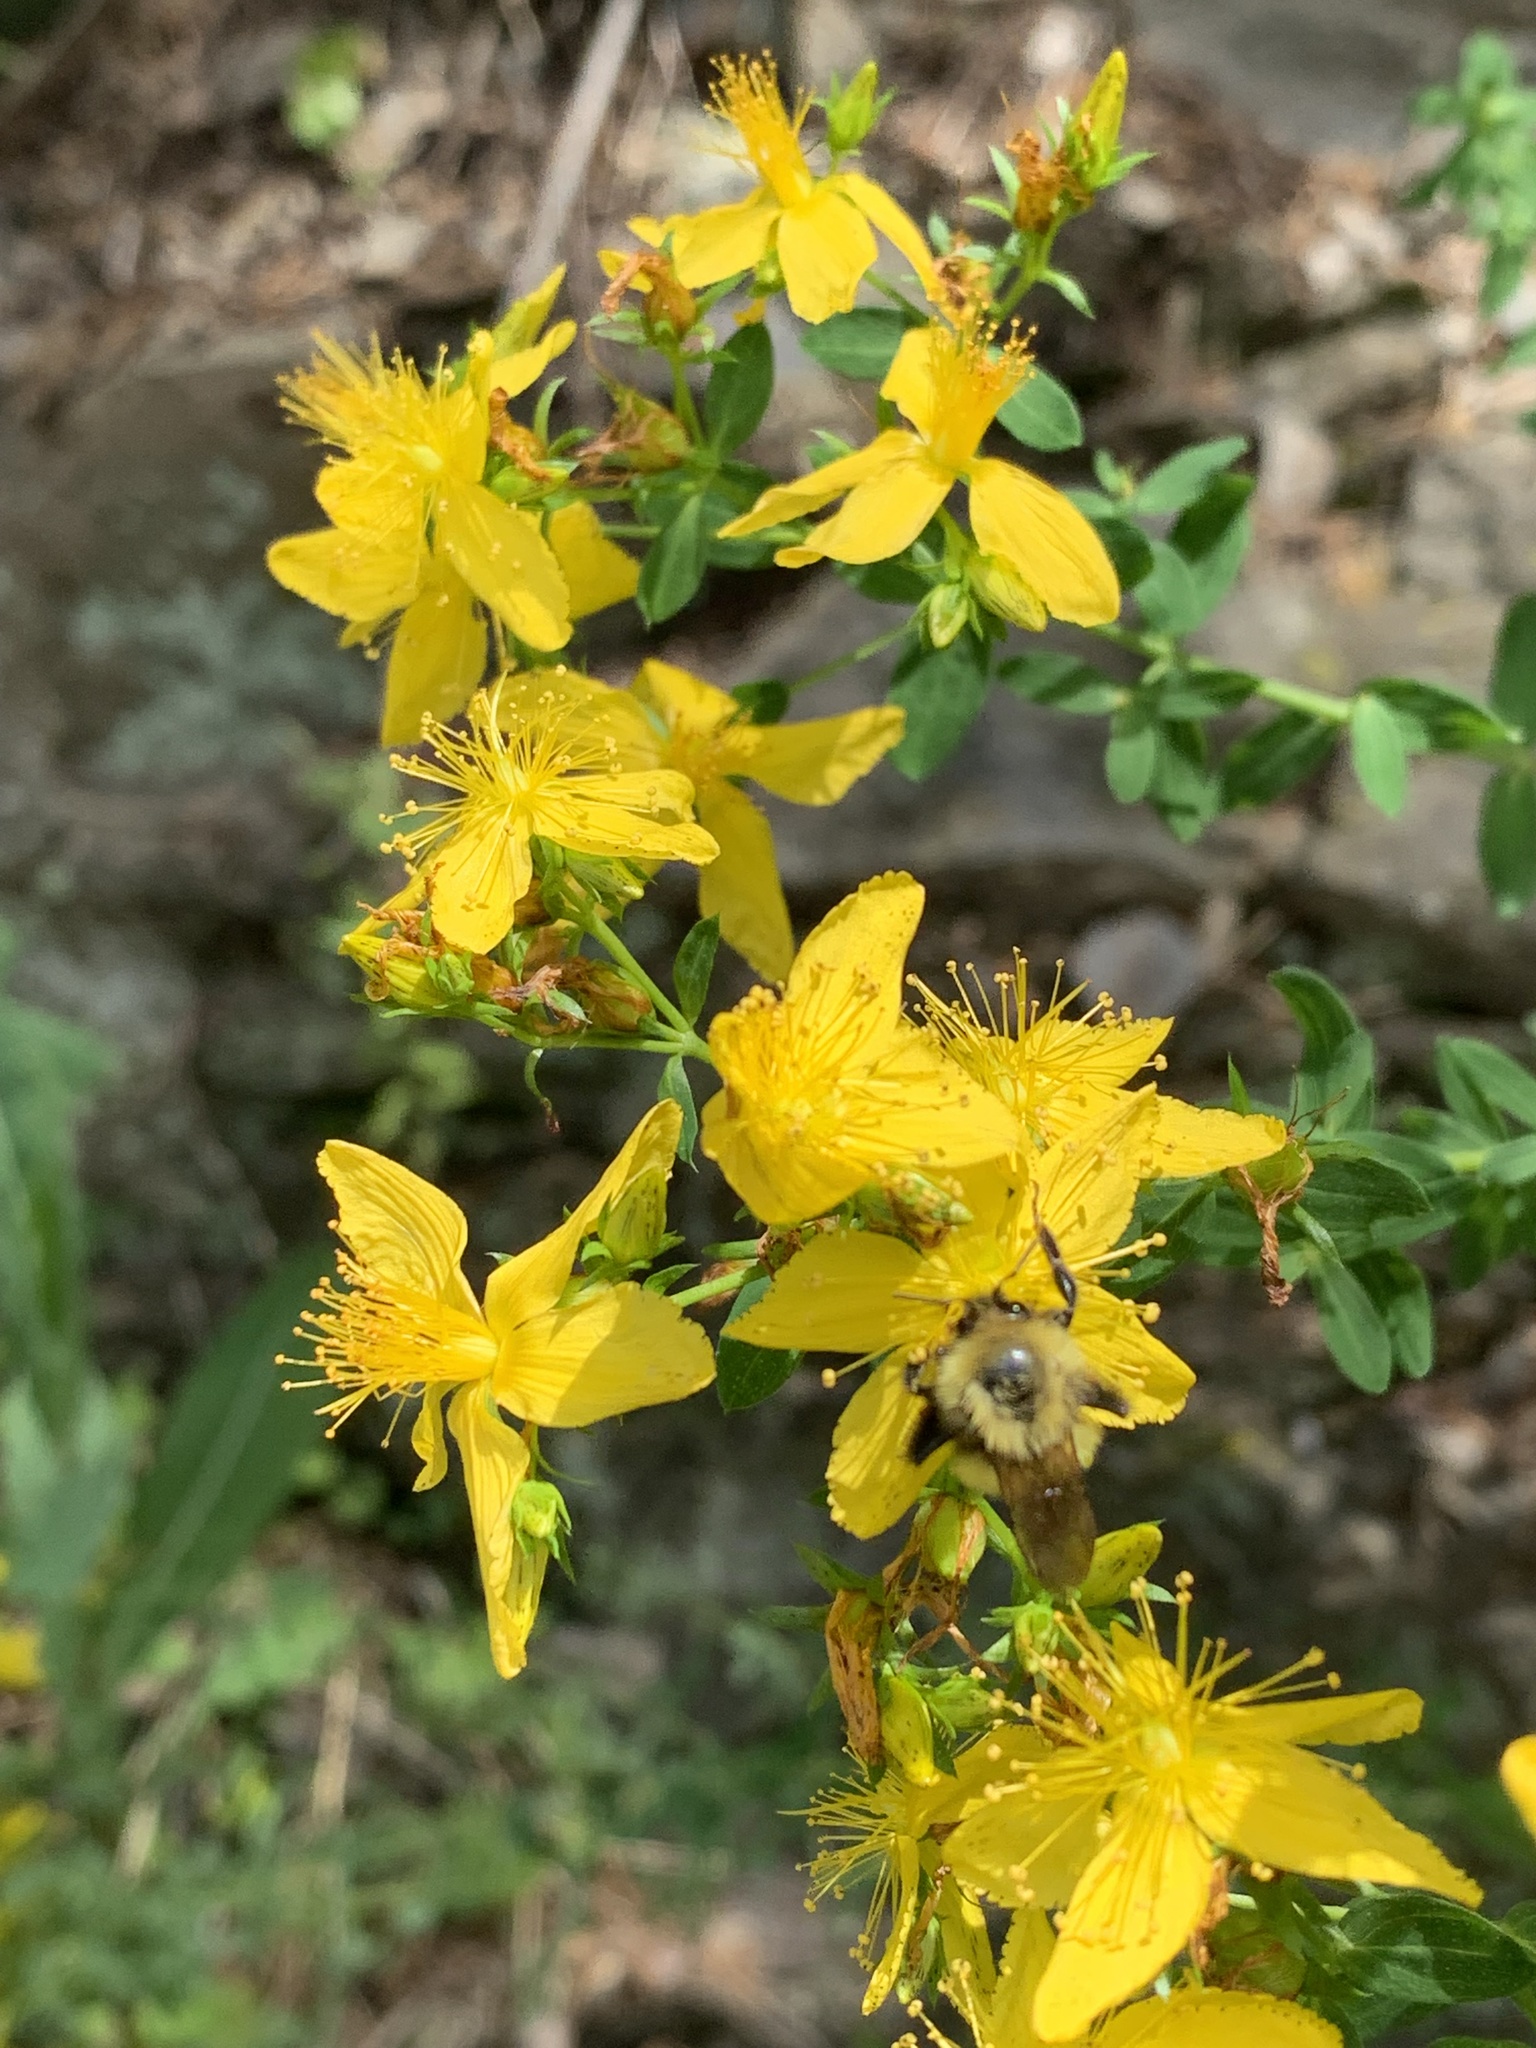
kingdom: Animalia
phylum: Arthropoda
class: Insecta
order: Hymenoptera
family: Apidae
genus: Bombus
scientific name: Bombus perplexus
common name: Confusing bumble bee
